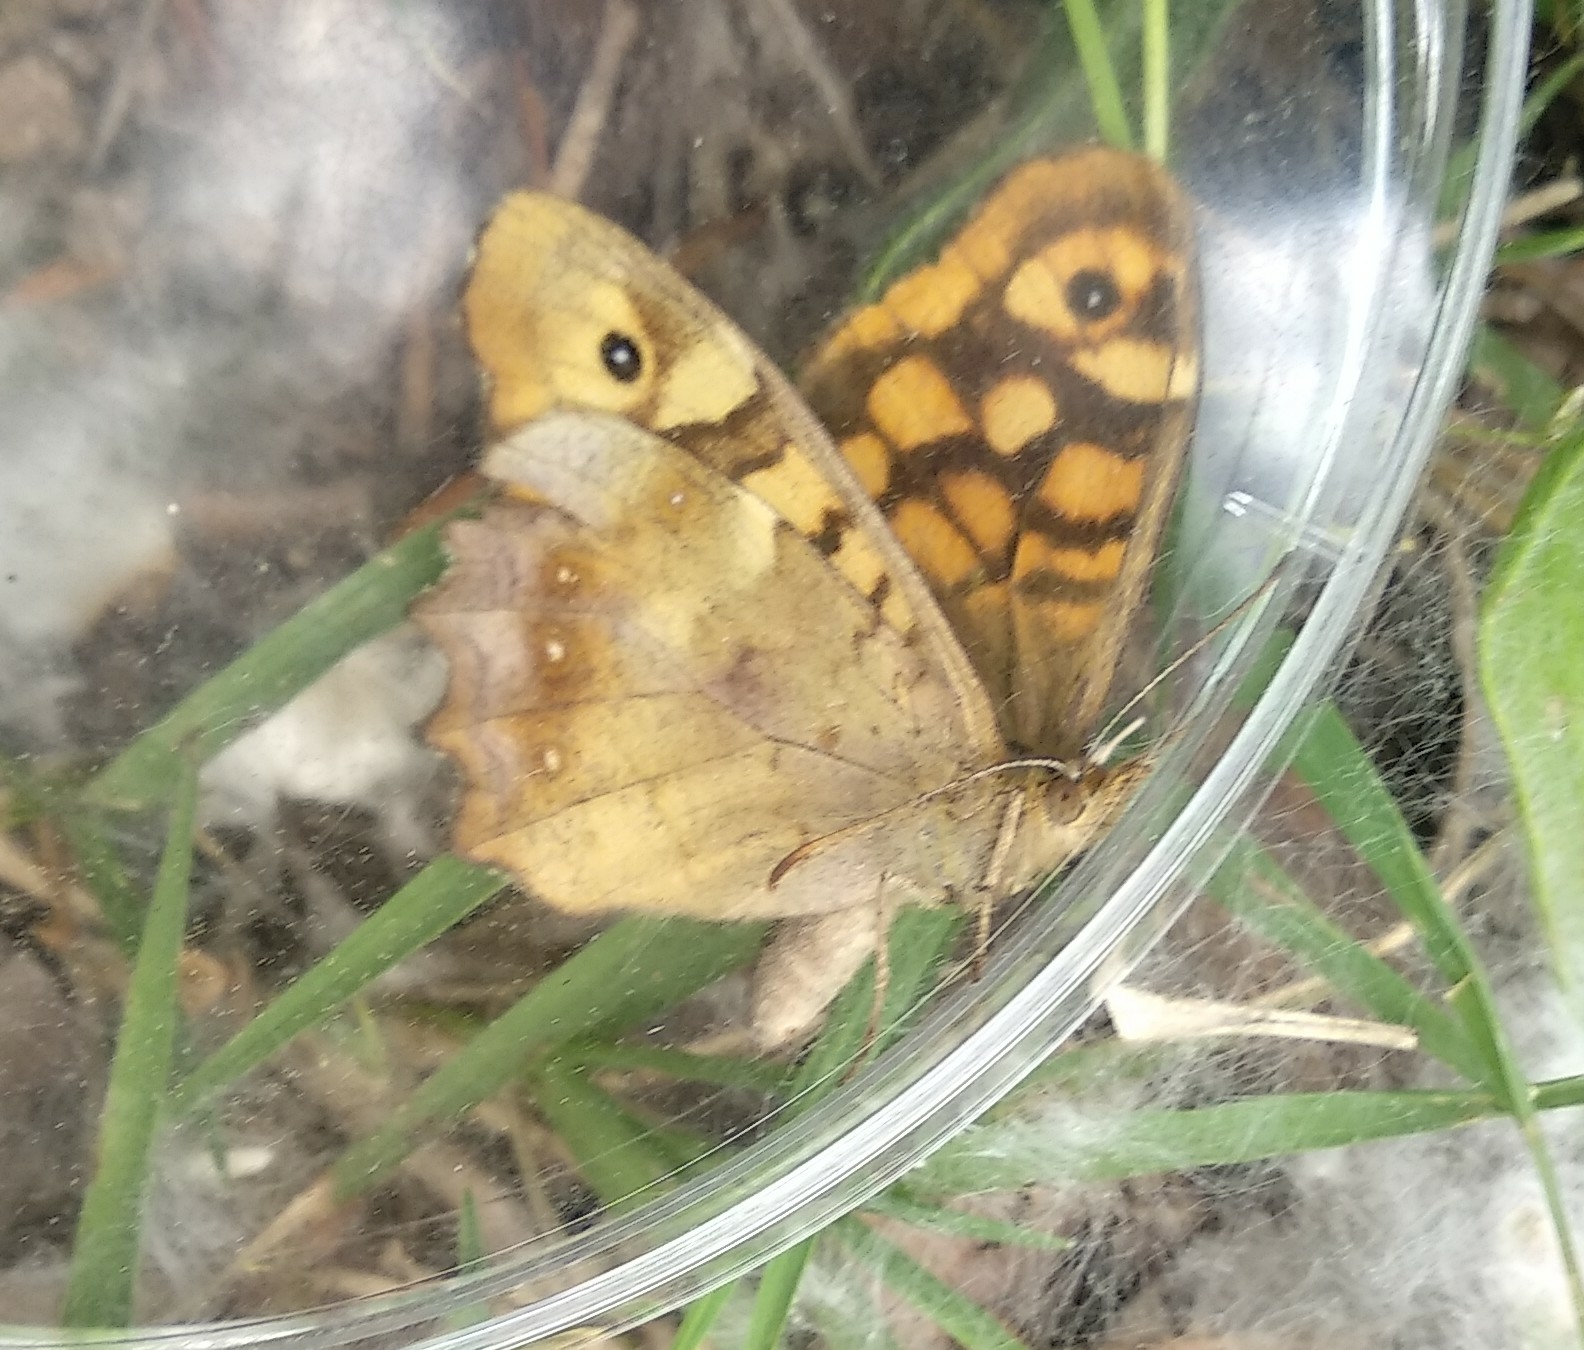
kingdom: Animalia
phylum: Arthropoda
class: Insecta
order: Lepidoptera
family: Nymphalidae
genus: Pararge
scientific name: Pararge aegeria
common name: Speckled wood
